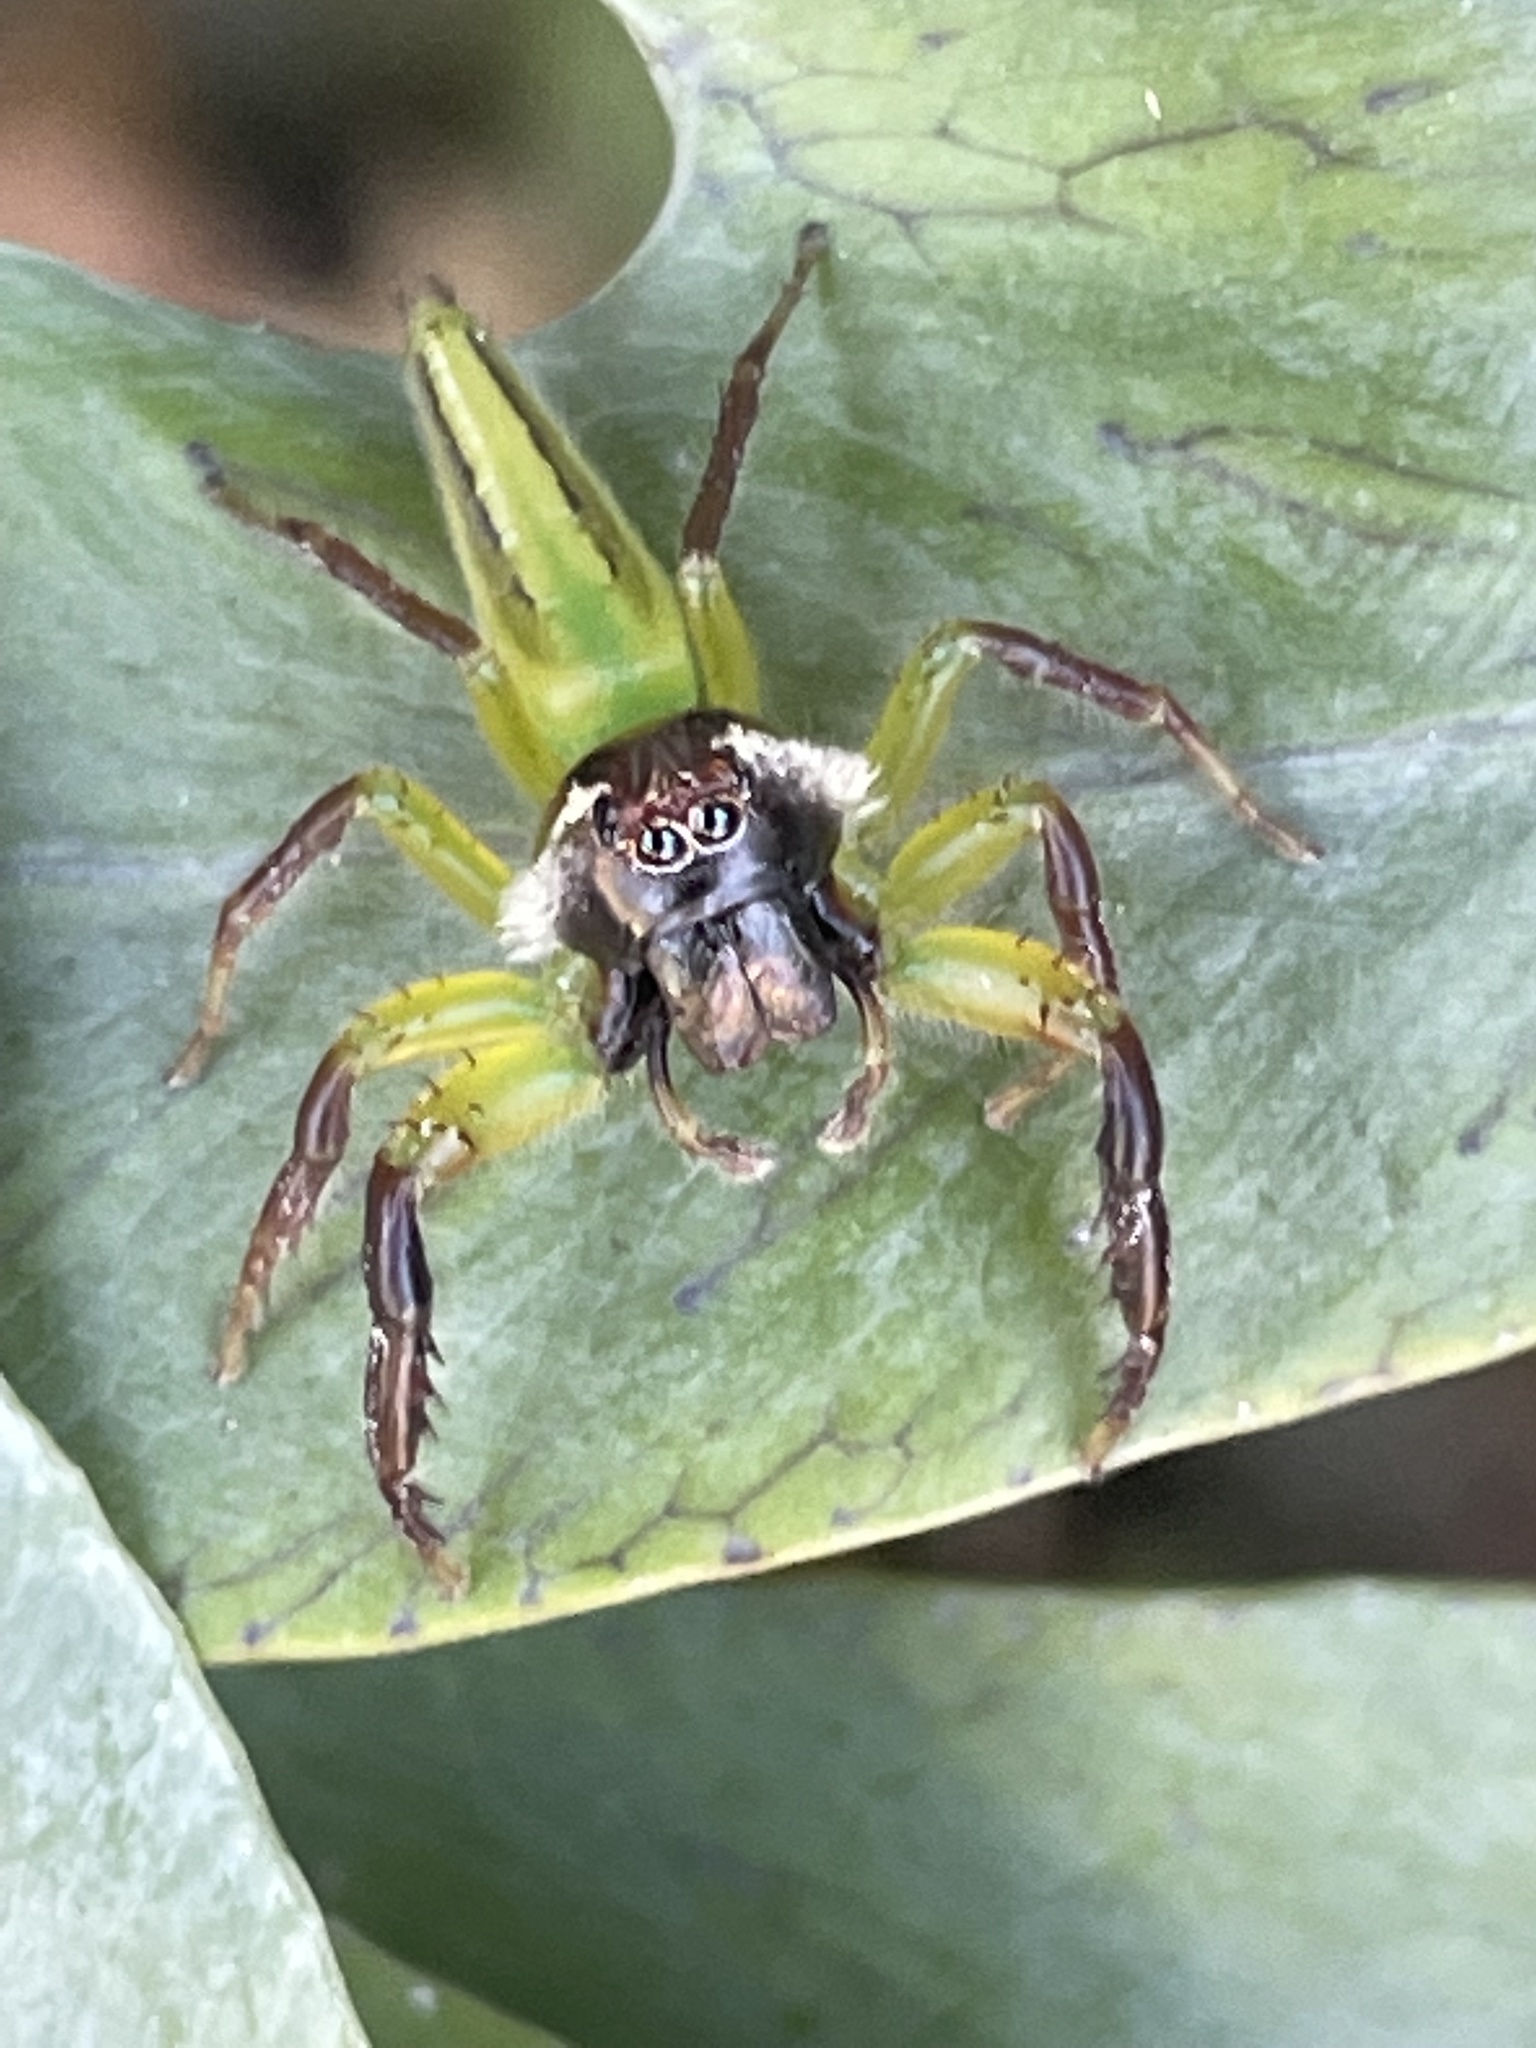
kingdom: Animalia
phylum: Arthropoda
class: Arachnida
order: Araneae
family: Salticidae
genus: Mopsus
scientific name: Mopsus mormon
